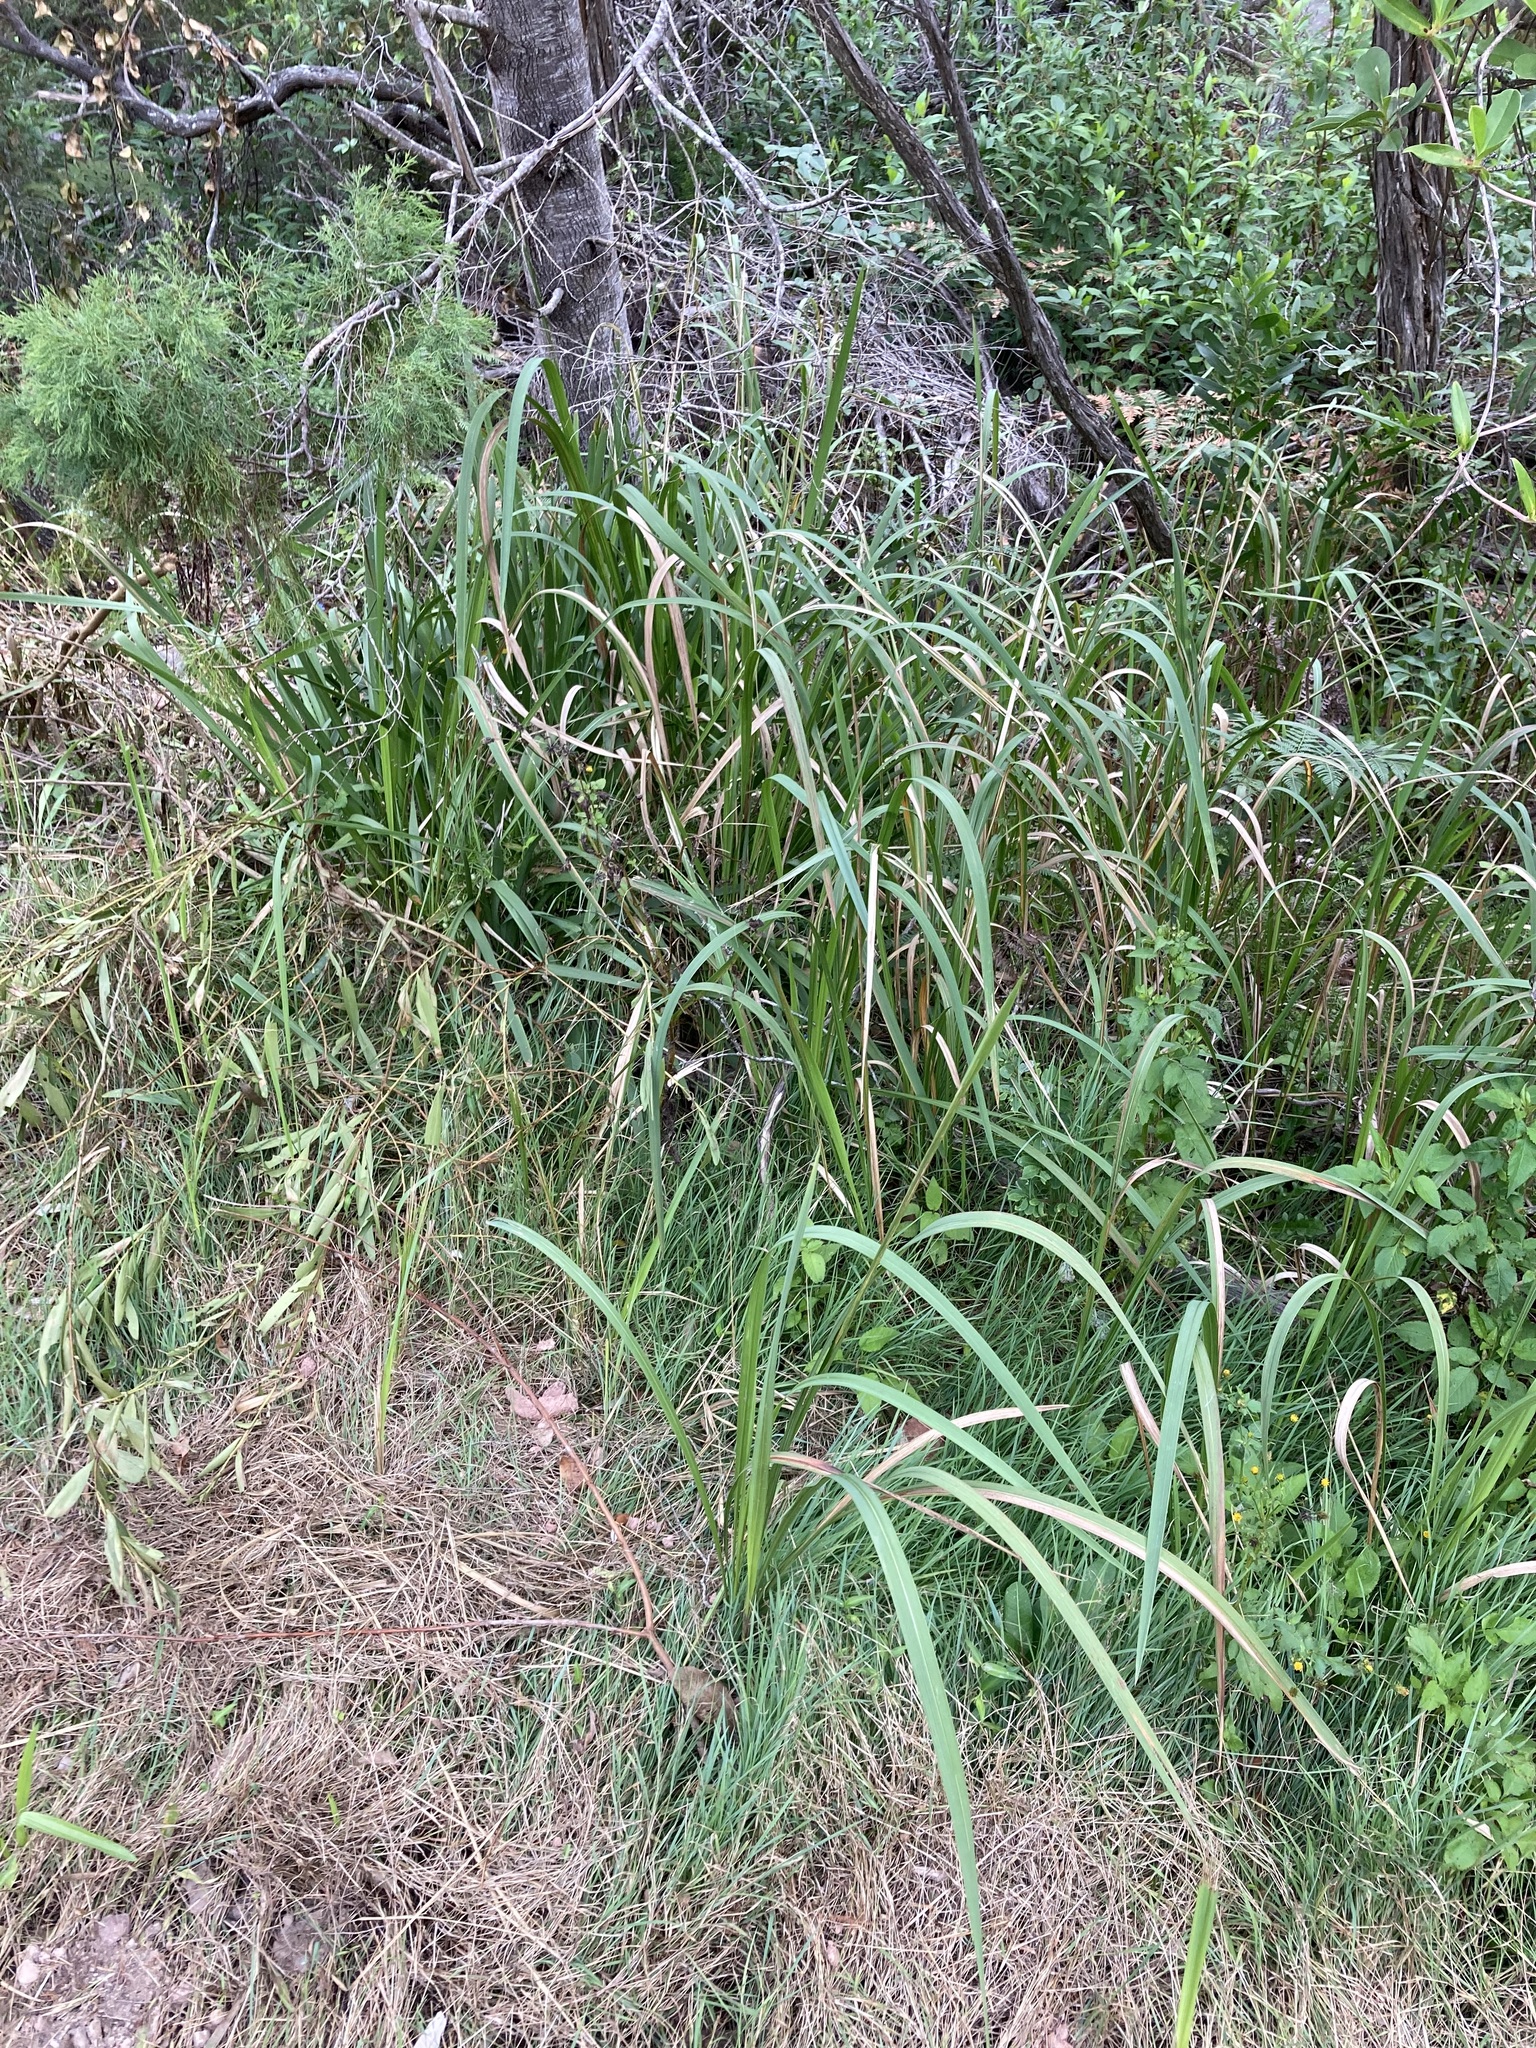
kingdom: Plantae
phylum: Tracheophyta
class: Liliopsida
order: Poales
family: Poaceae
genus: Imperata
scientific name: Imperata cylindrica
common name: Cogongrass
